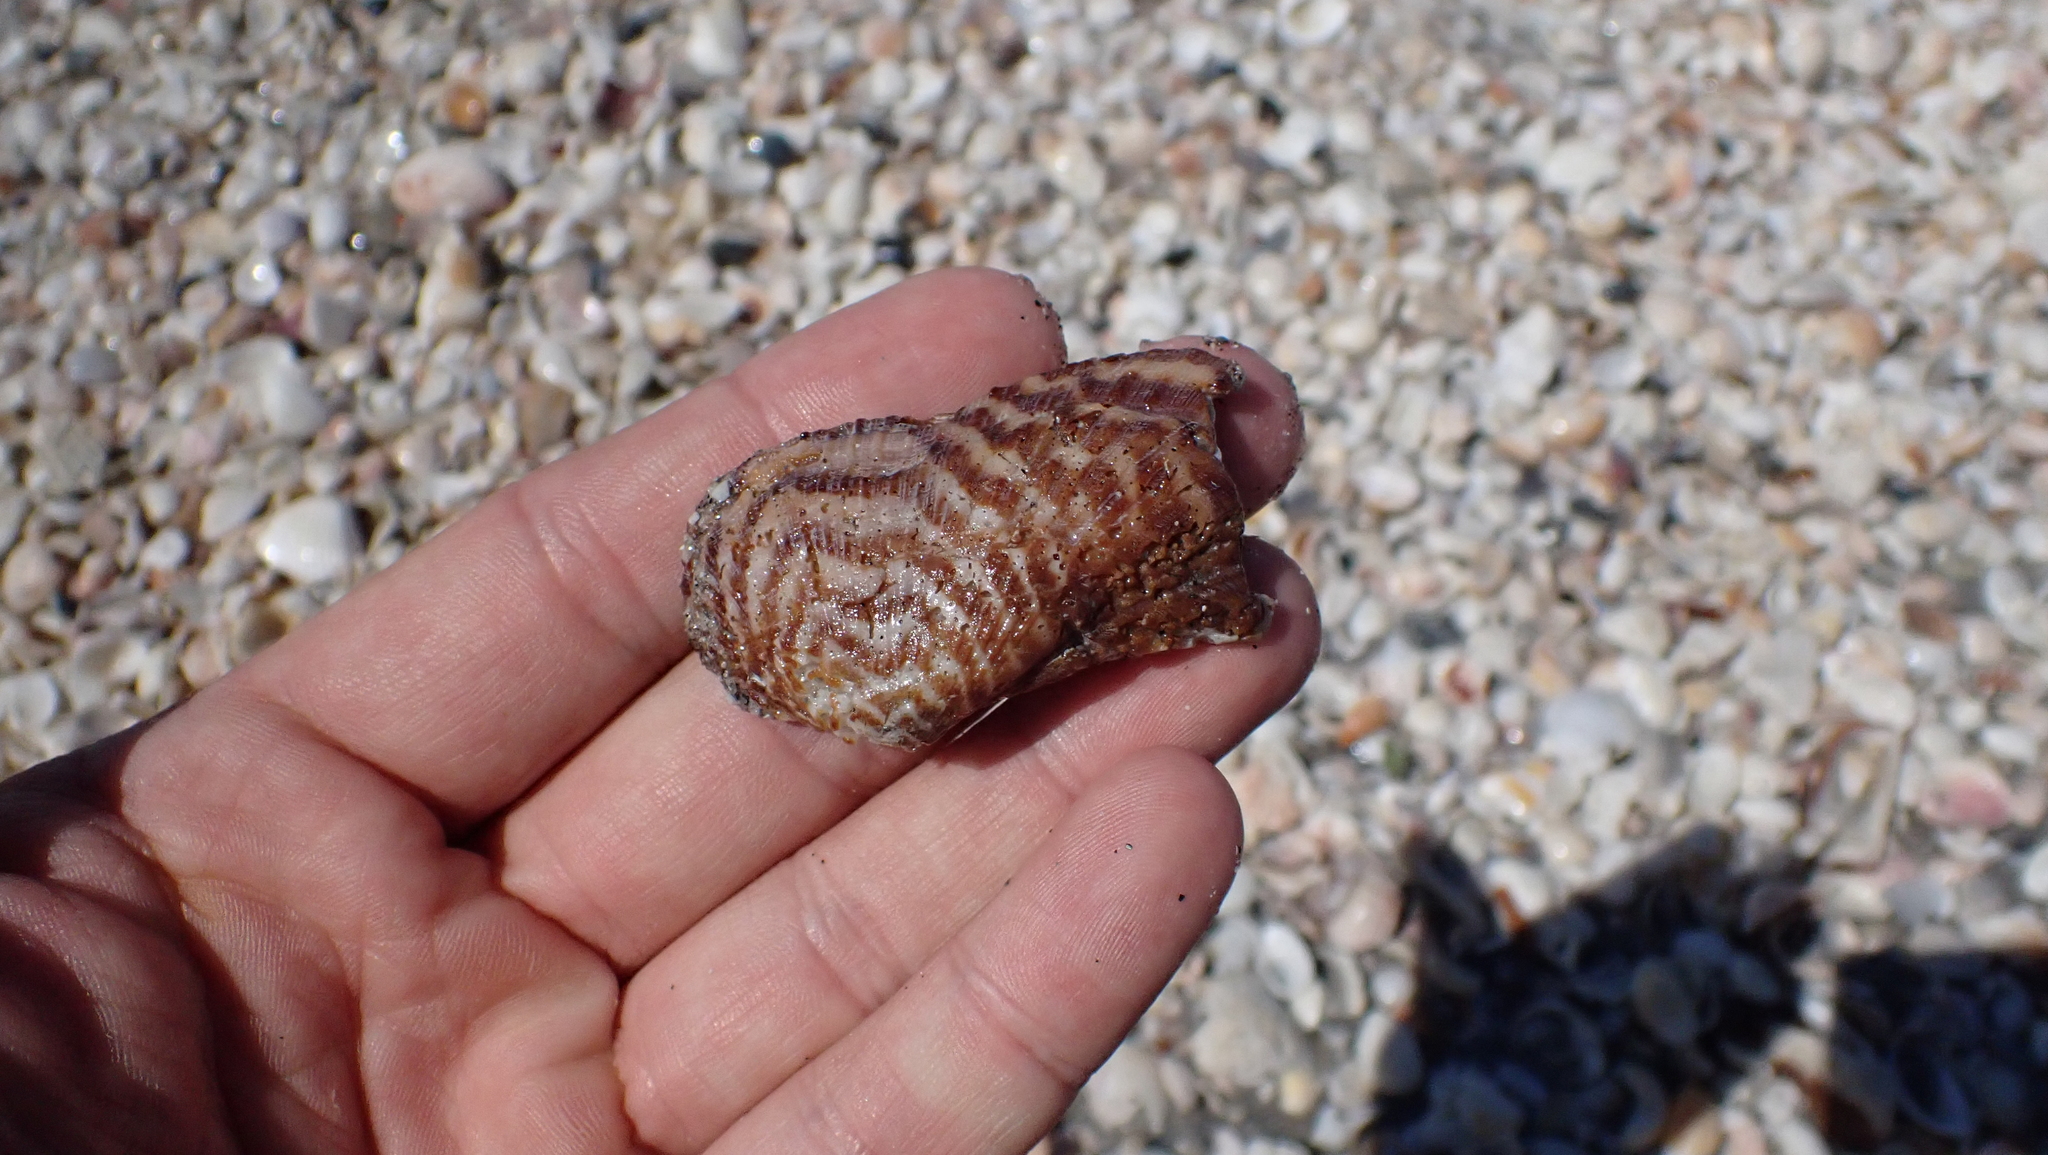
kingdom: Animalia
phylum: Mollusca
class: Bivalvia
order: Arcida
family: Arcidae
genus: Arca
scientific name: Arca zebra
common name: Atlantic turkey wing
